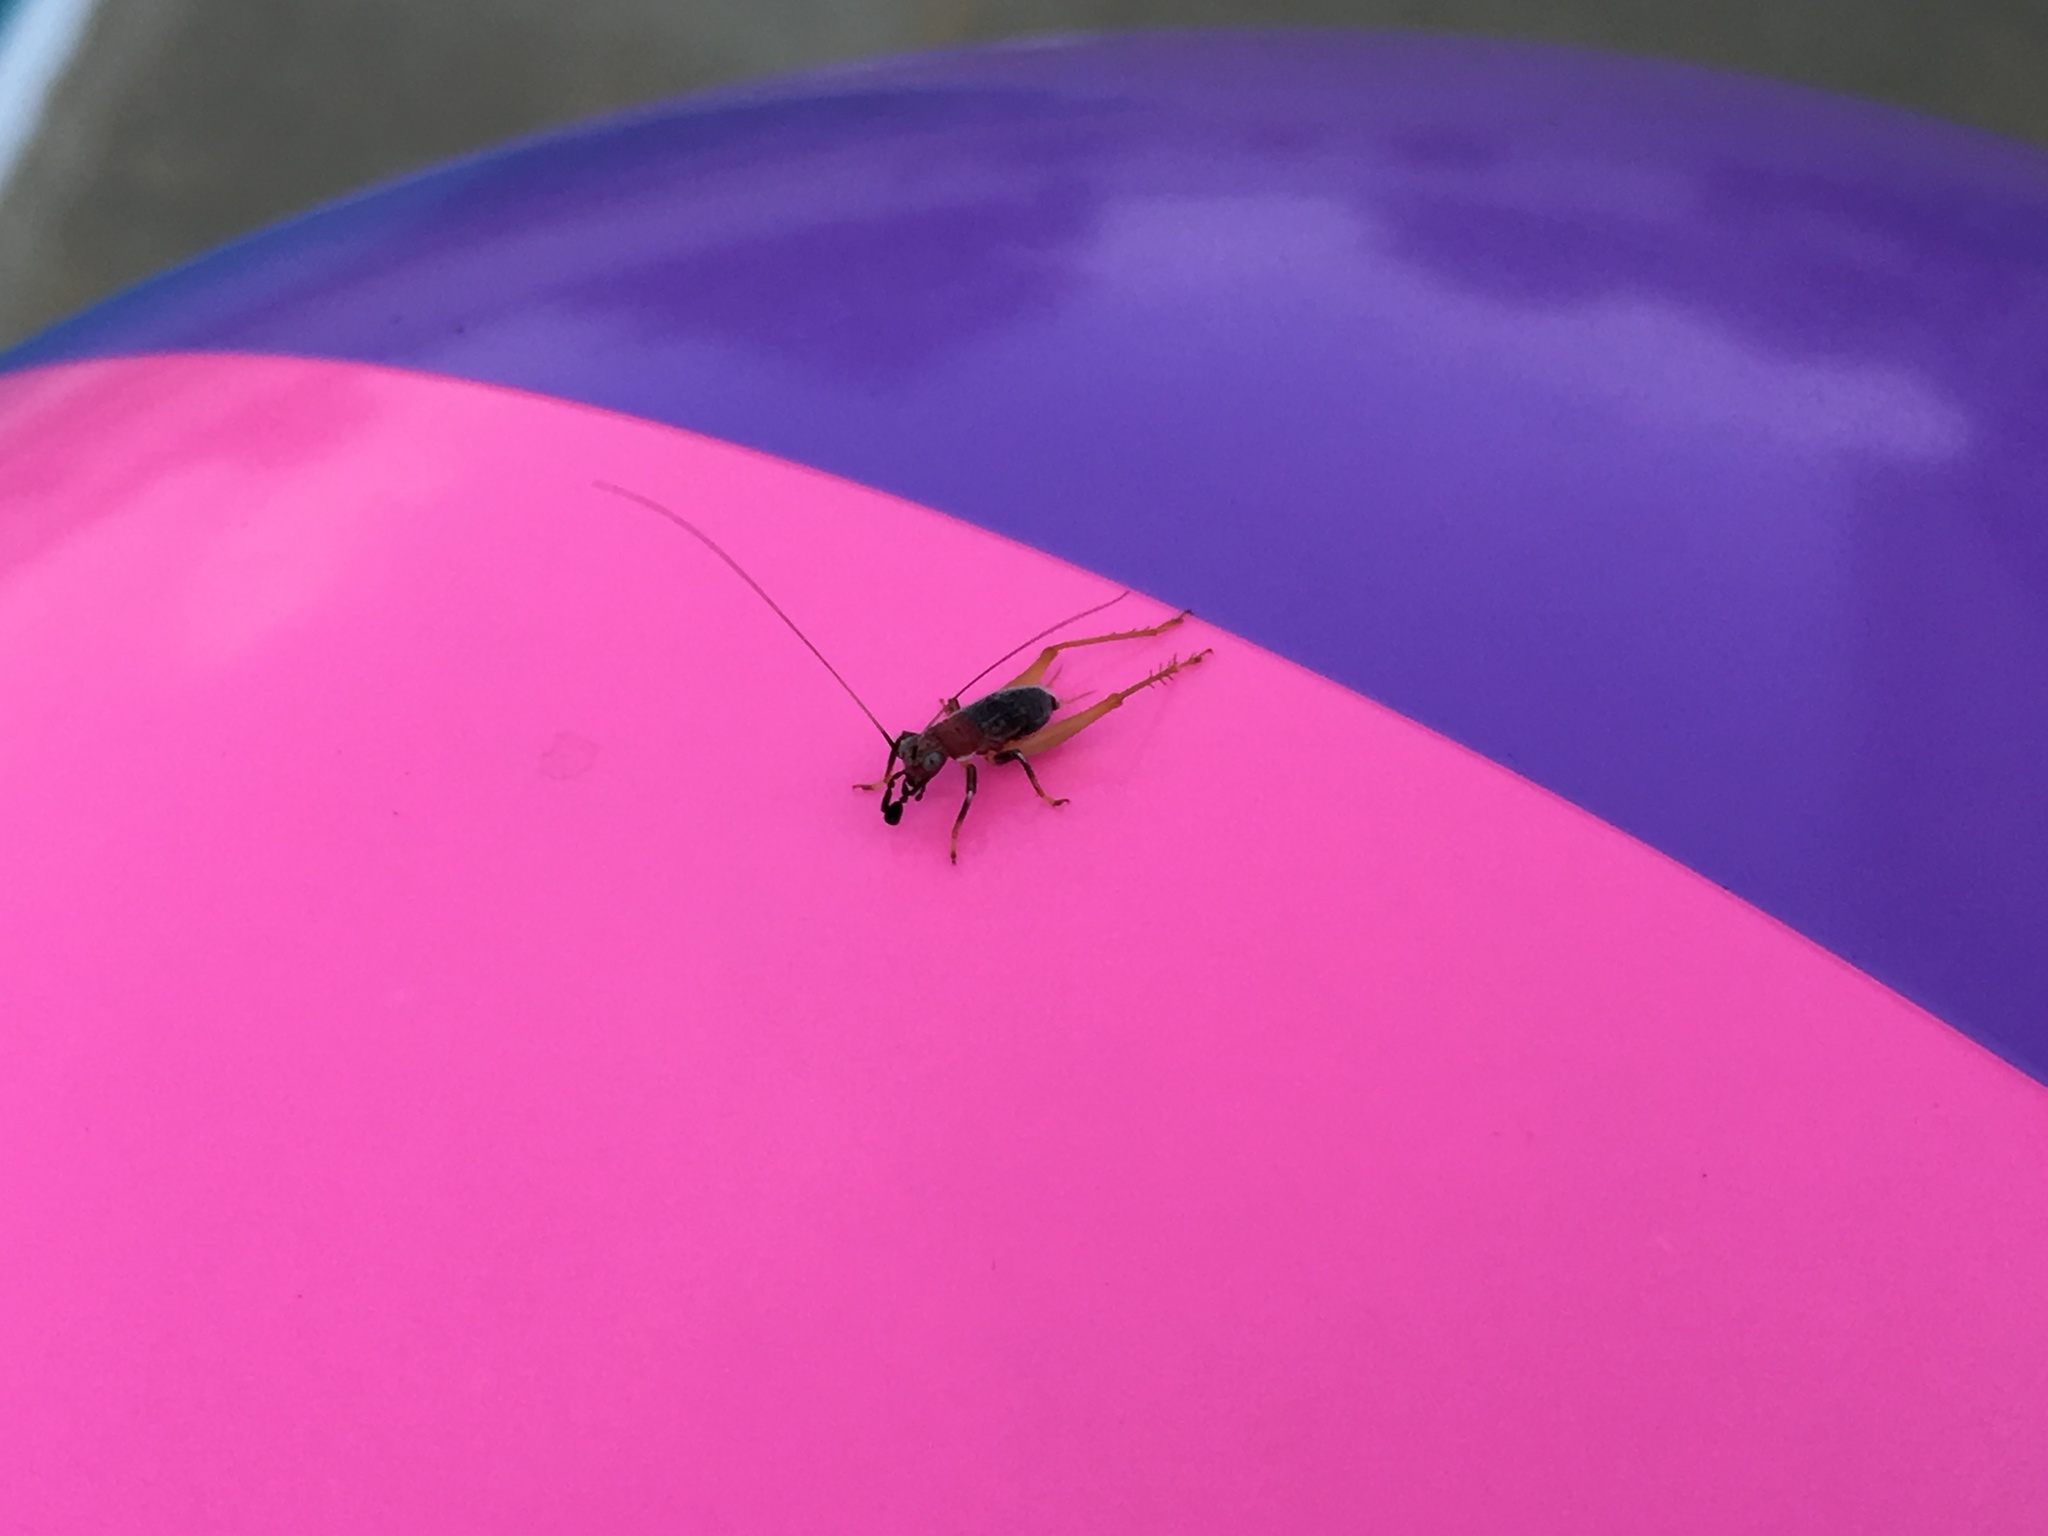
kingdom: Animalia
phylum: Arthropoda
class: Insecta
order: Orthoptera
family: Trigonidiidae
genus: Phyllopalpus
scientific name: Phyllopalpus pulchellus
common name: Handsome trig
